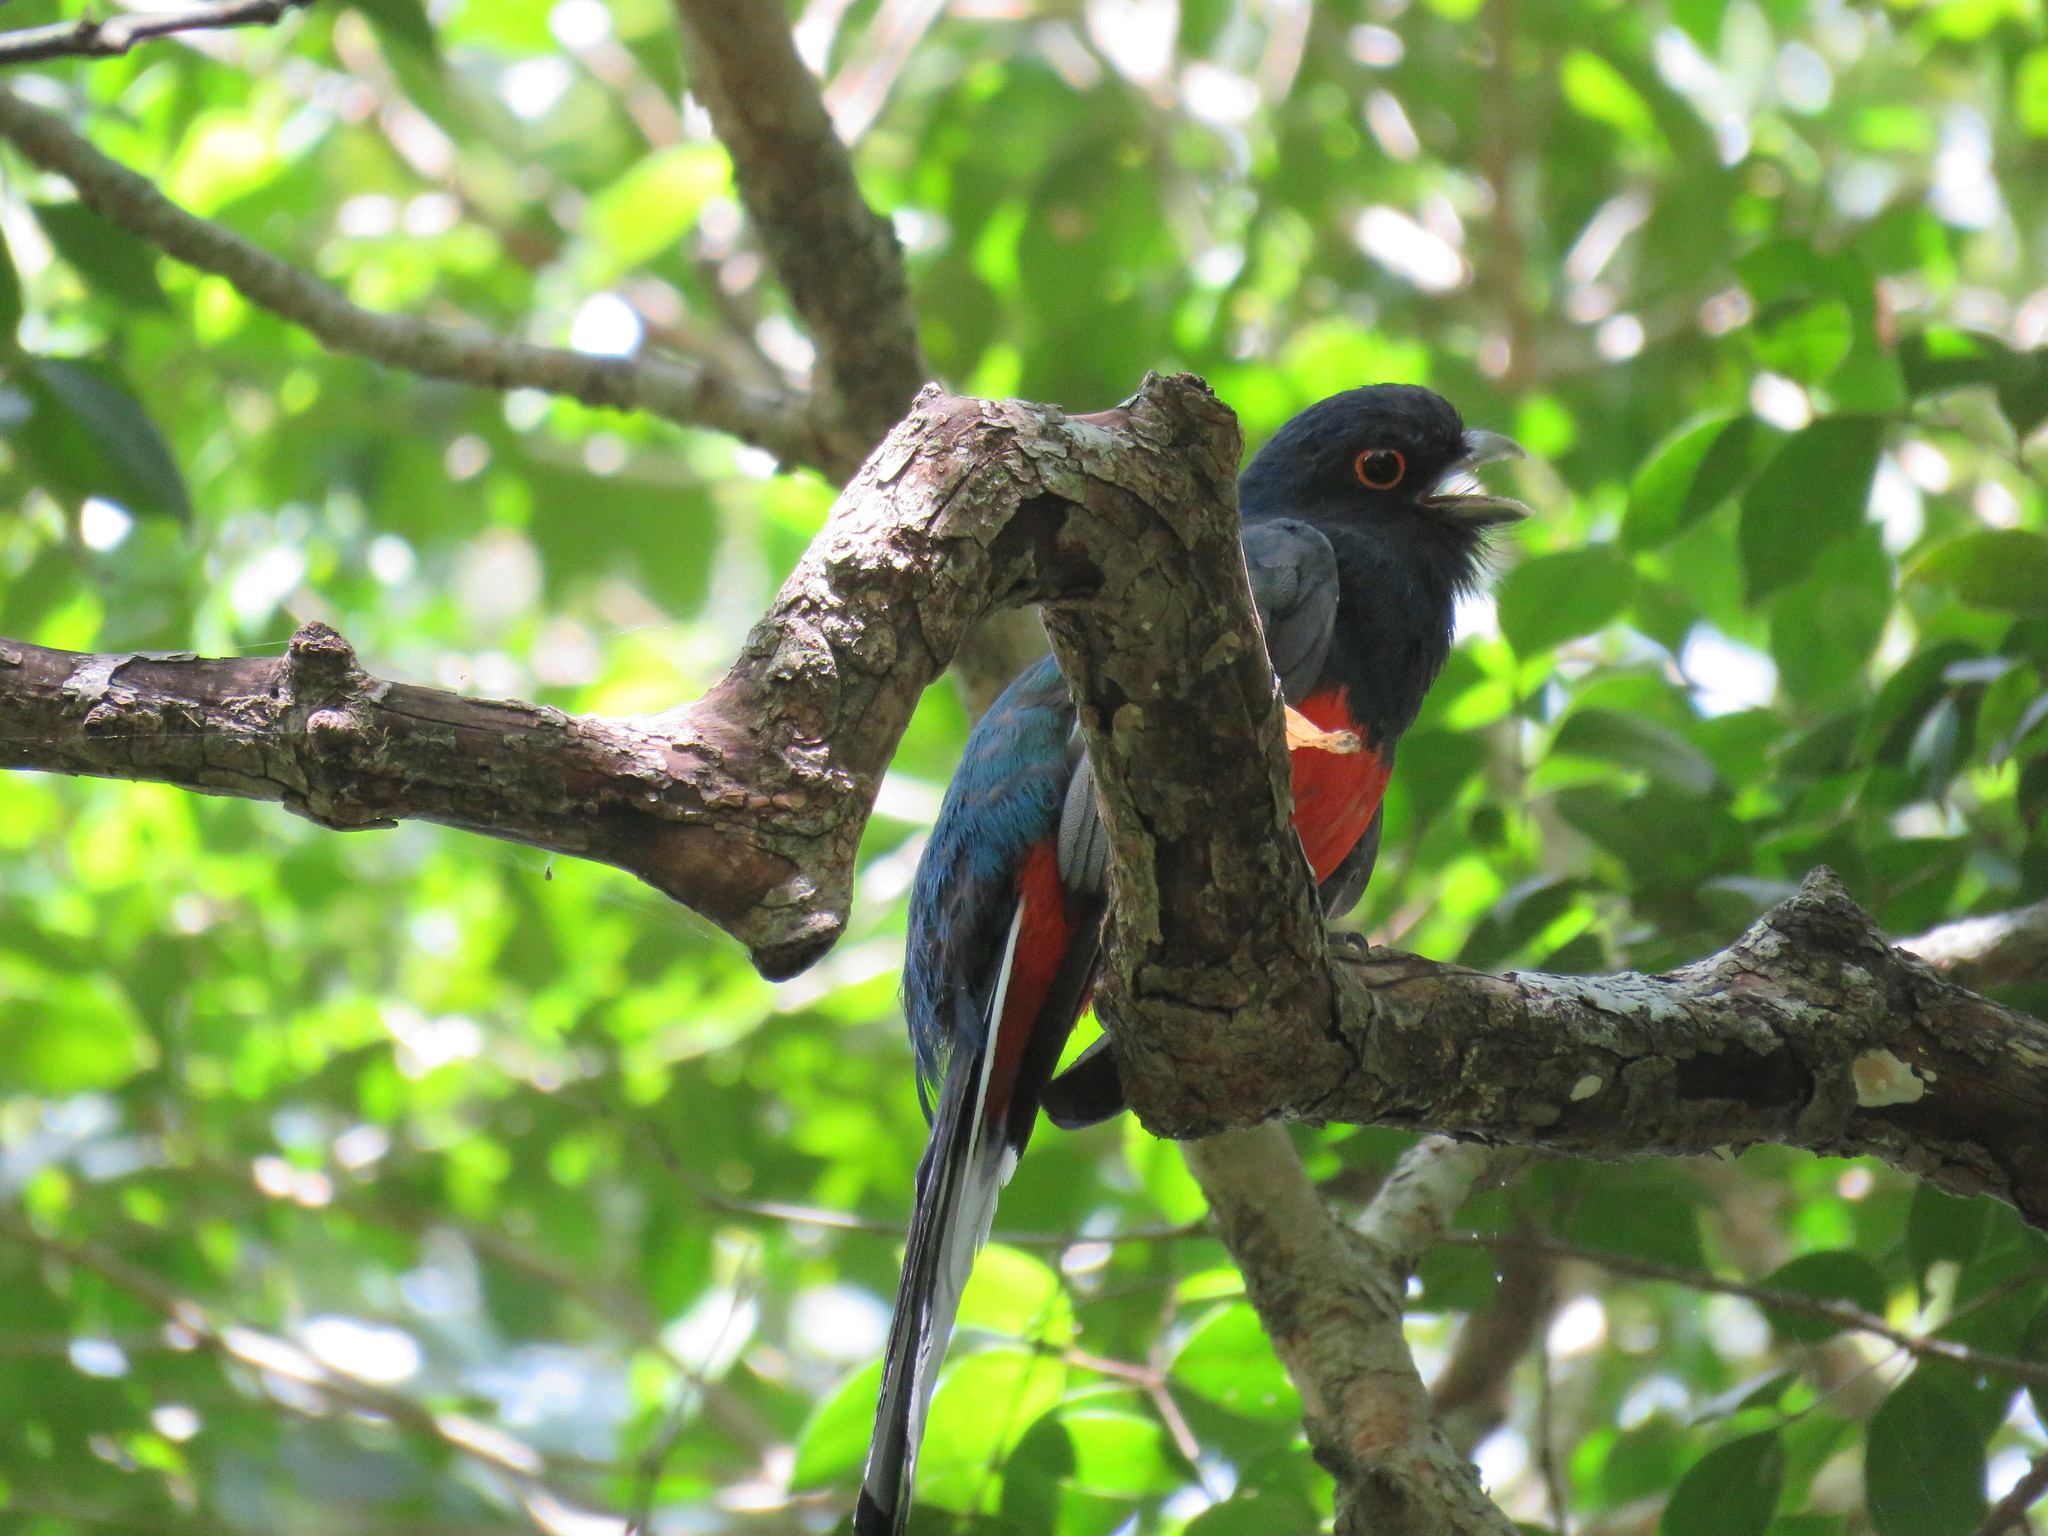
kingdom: Animalia
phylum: Chordata
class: Aves
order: Trogoniformes
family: Trogonidae
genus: Trogon
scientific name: Trogon surrucura
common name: Surucua trogon
